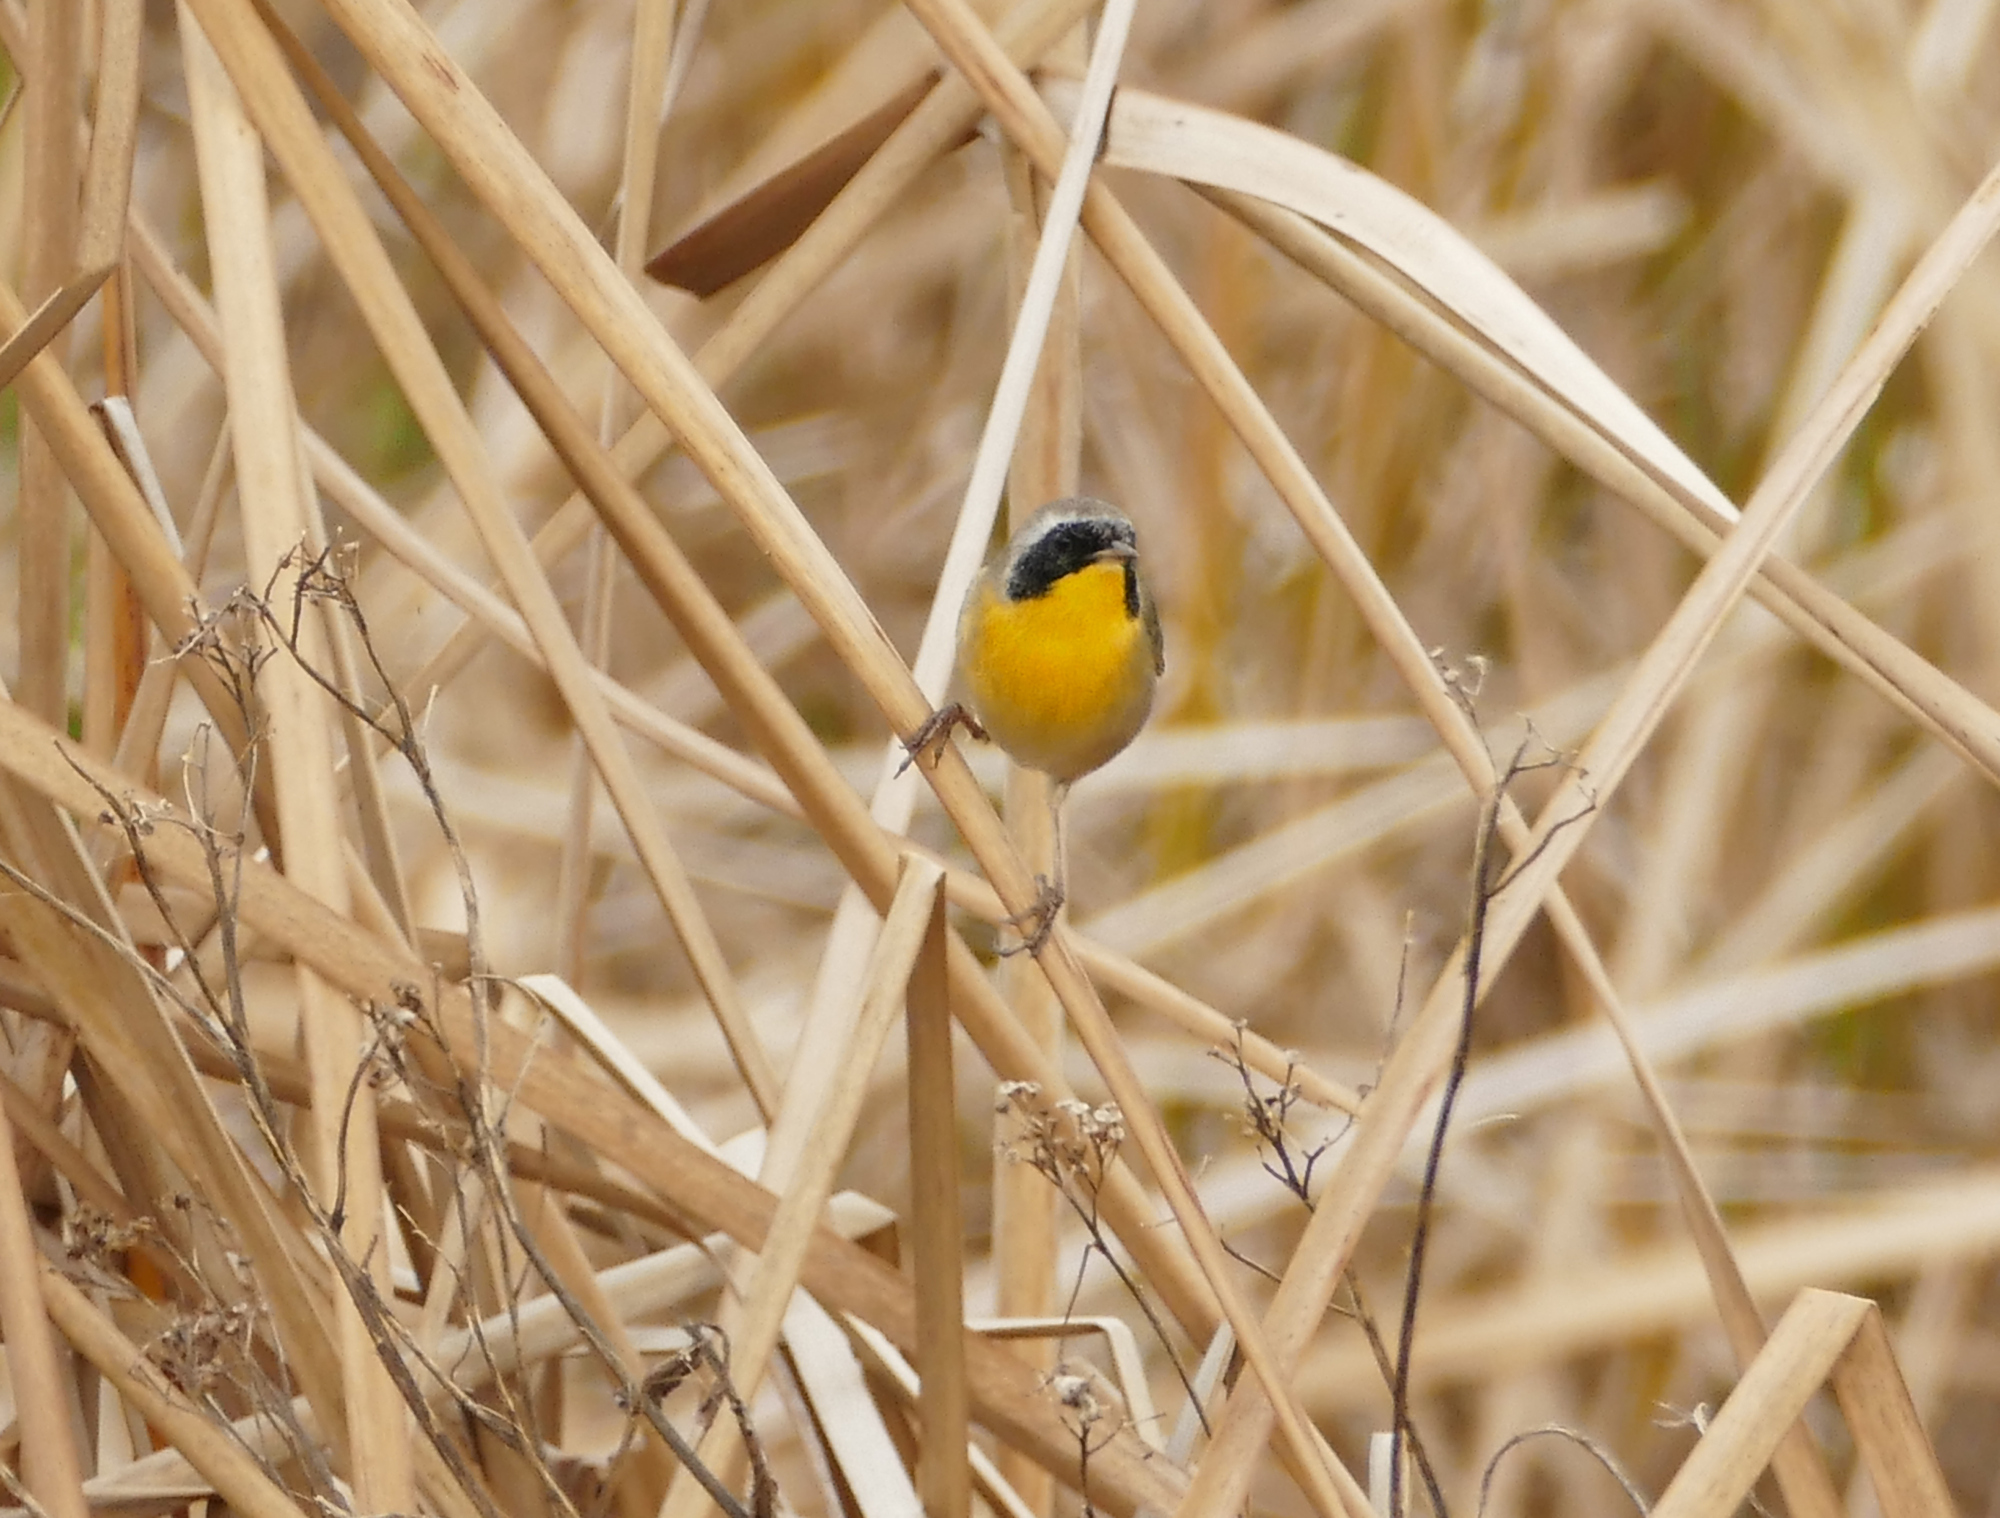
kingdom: Animalia
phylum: Chordata
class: Aves
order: Passeriformes
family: Parulidae
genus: Geothlypis
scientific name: Geothlypis trichas
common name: Common yellowthroat
